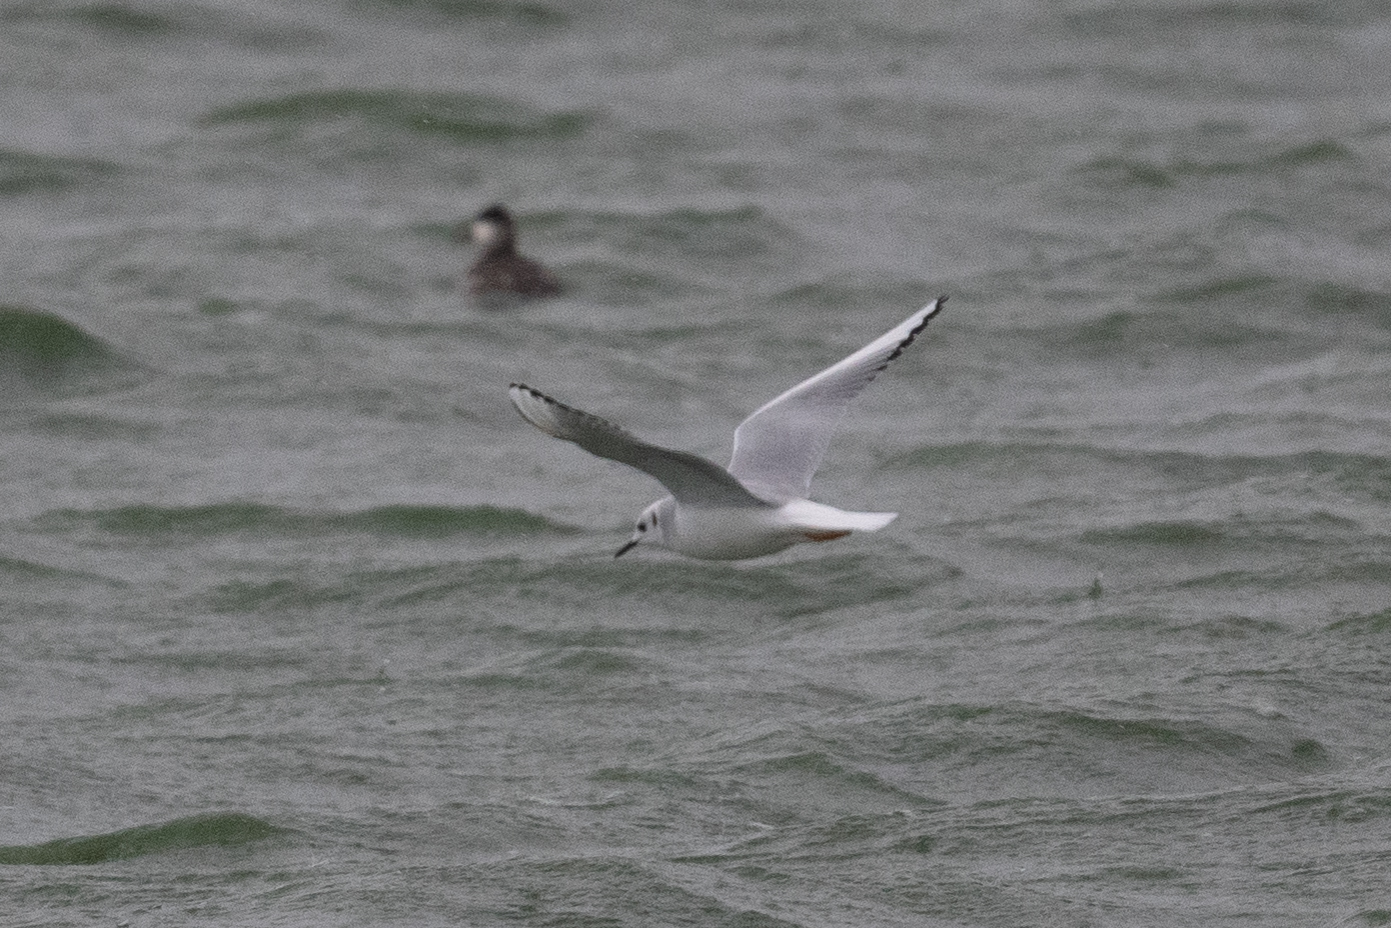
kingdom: Animalia
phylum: Chordata
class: Aves
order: Charadriiformes
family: Laridae
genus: Chroicocephalus
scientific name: Chroicocephalus philadelphia
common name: Bonaparte's gull
